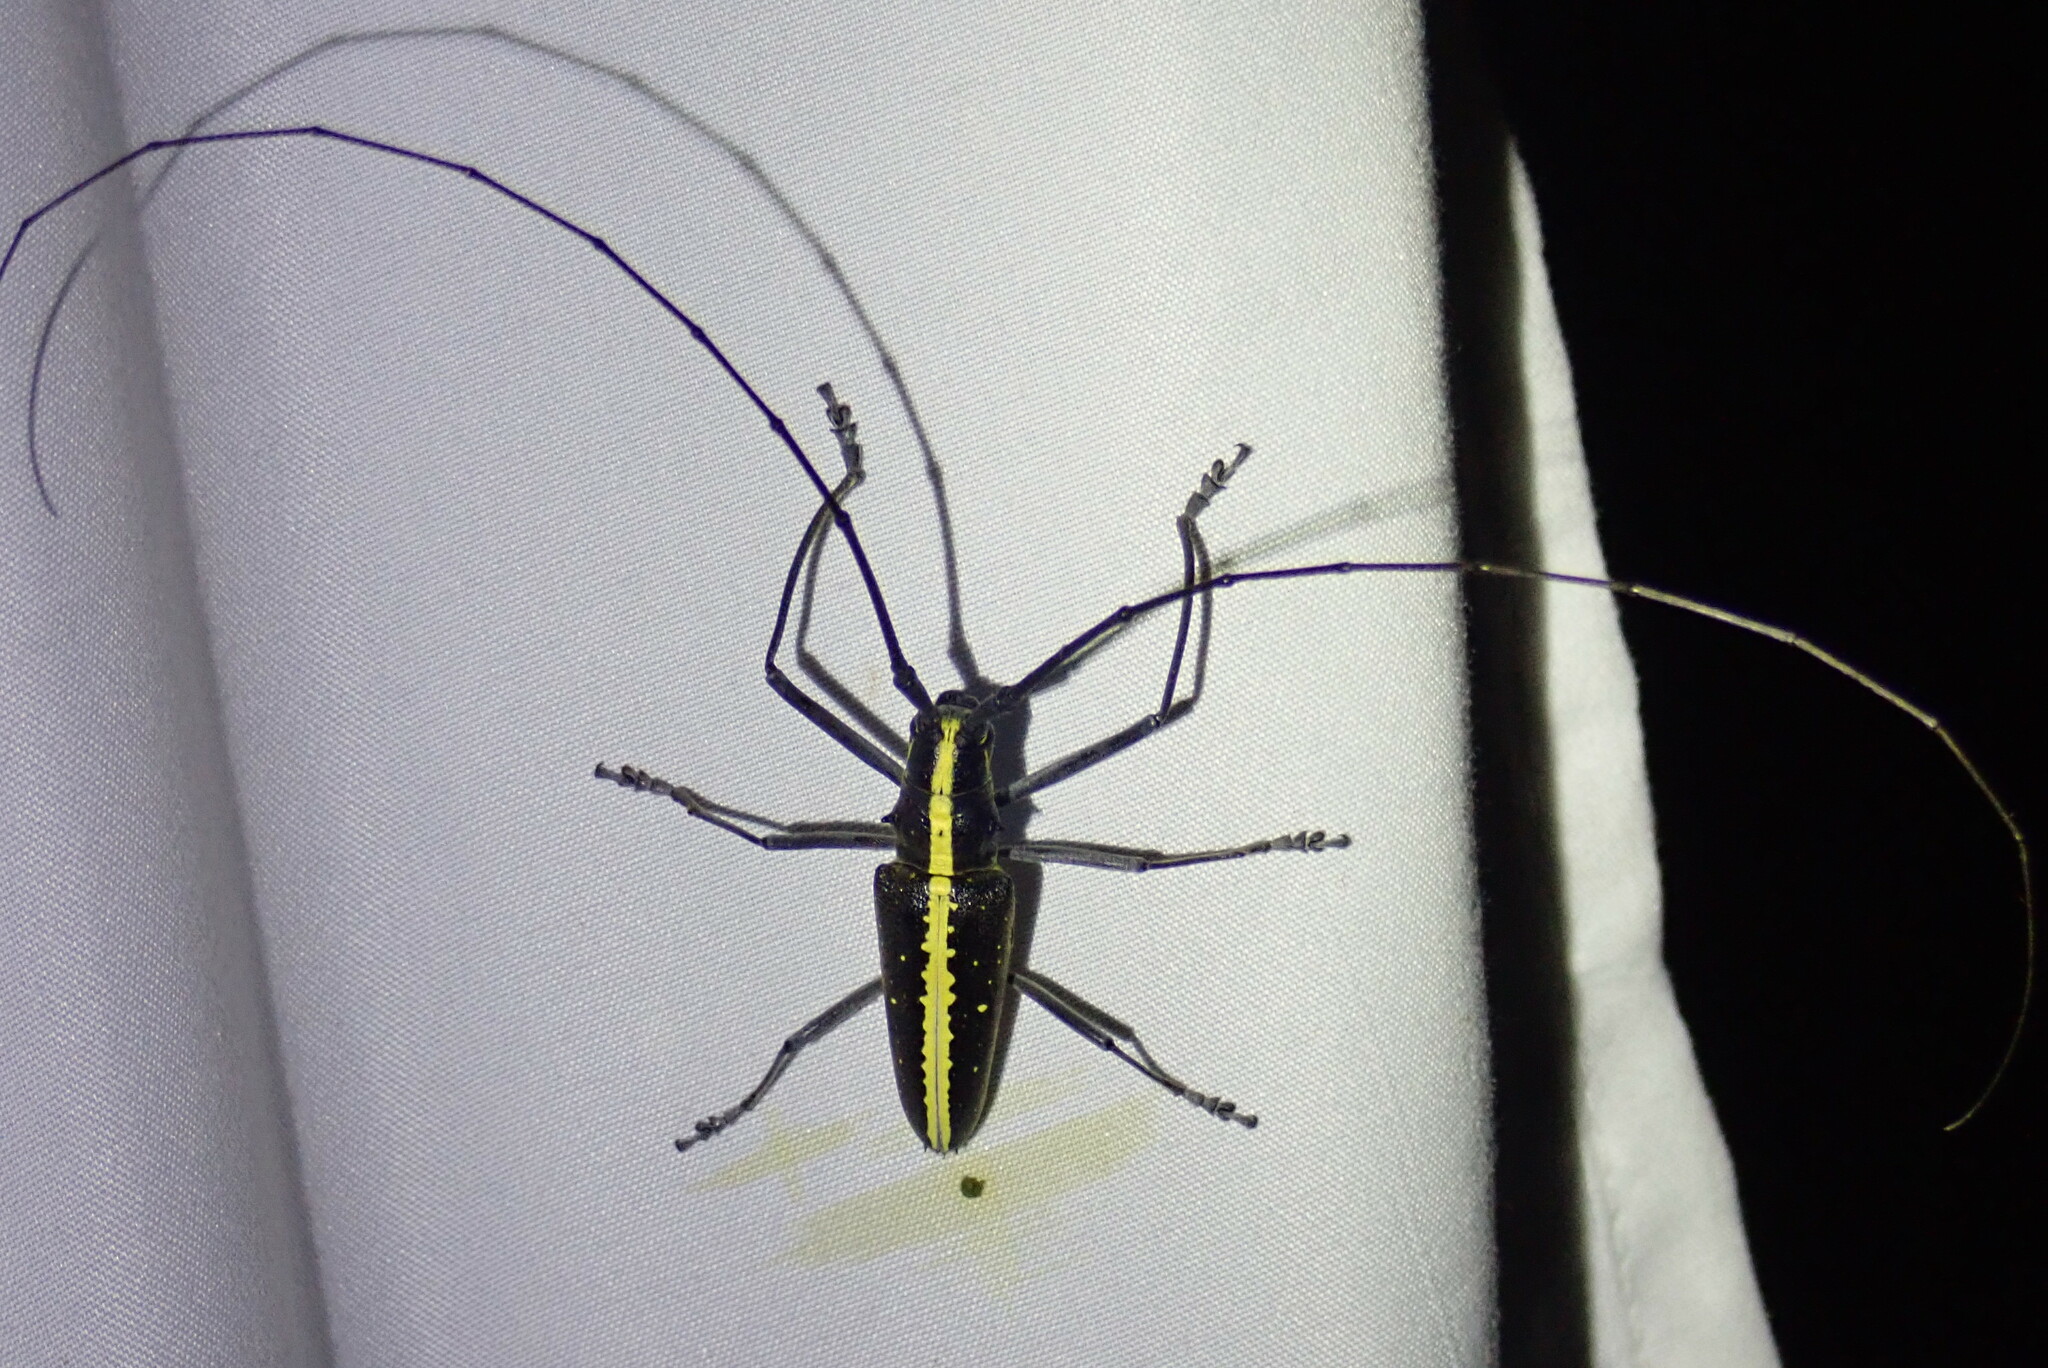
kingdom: Animalia
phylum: Arthropoda
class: Insecta
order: Coleoptera
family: Cerambycidae
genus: Taeniotes
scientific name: Taeniotes scalatus
